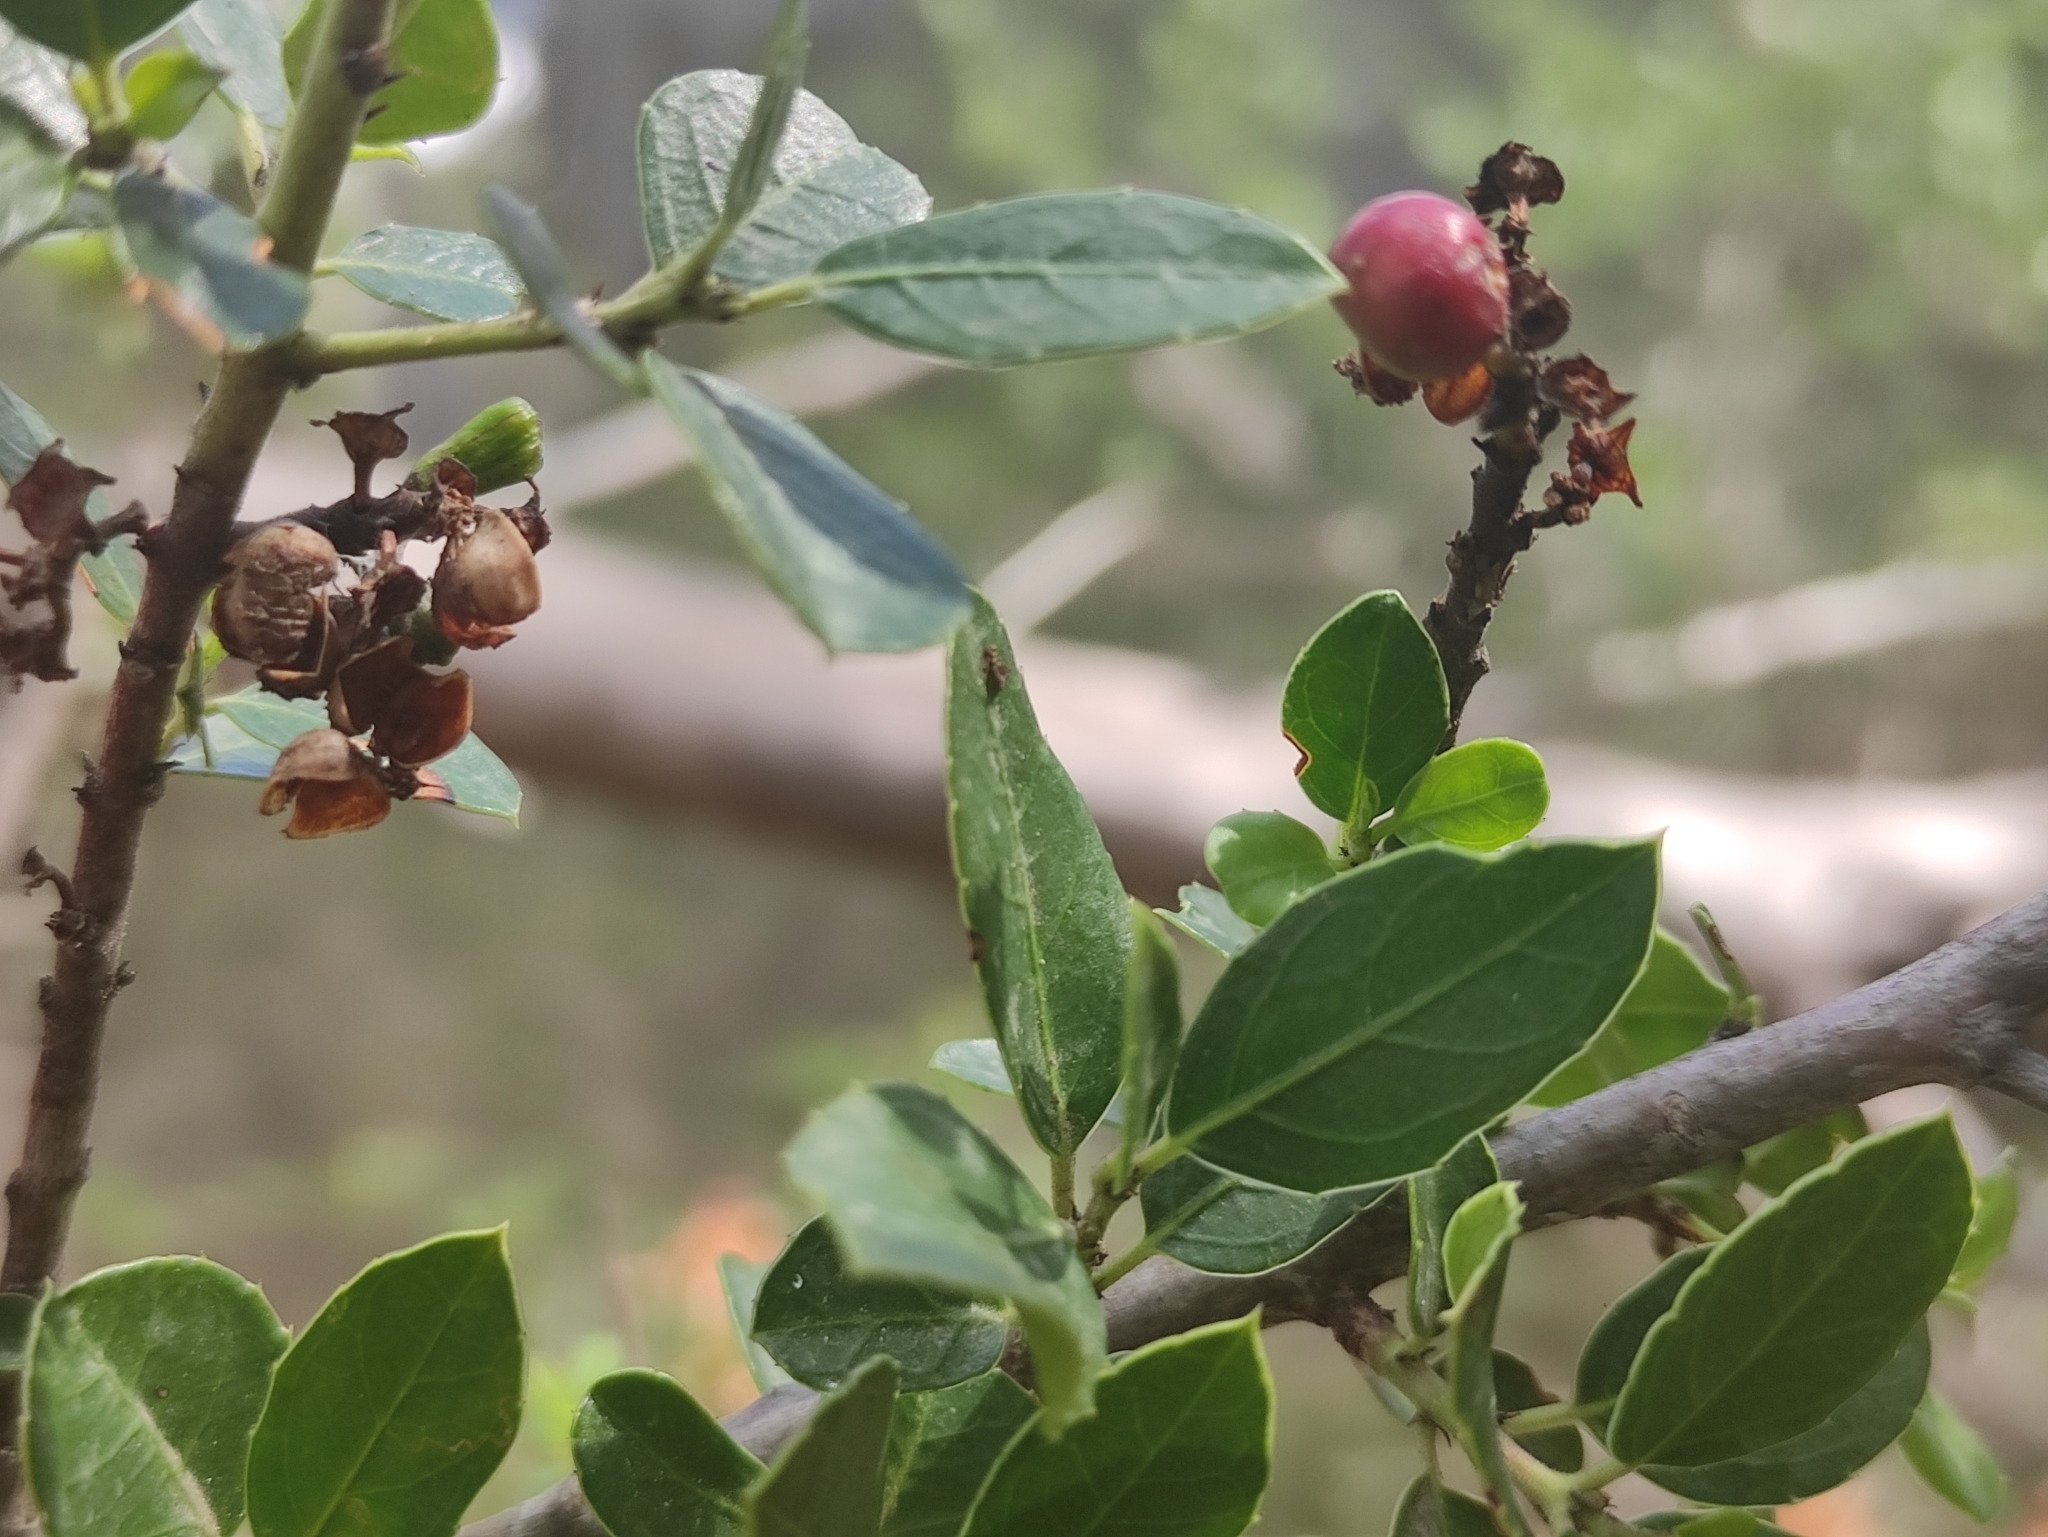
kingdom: Plantae
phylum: Tracheophyta
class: Magnoliopsida
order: Rosales
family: Rhamnaceae
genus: Rhamnus
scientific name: Rhamnus alaternus
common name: Mediterranean buckthorn
